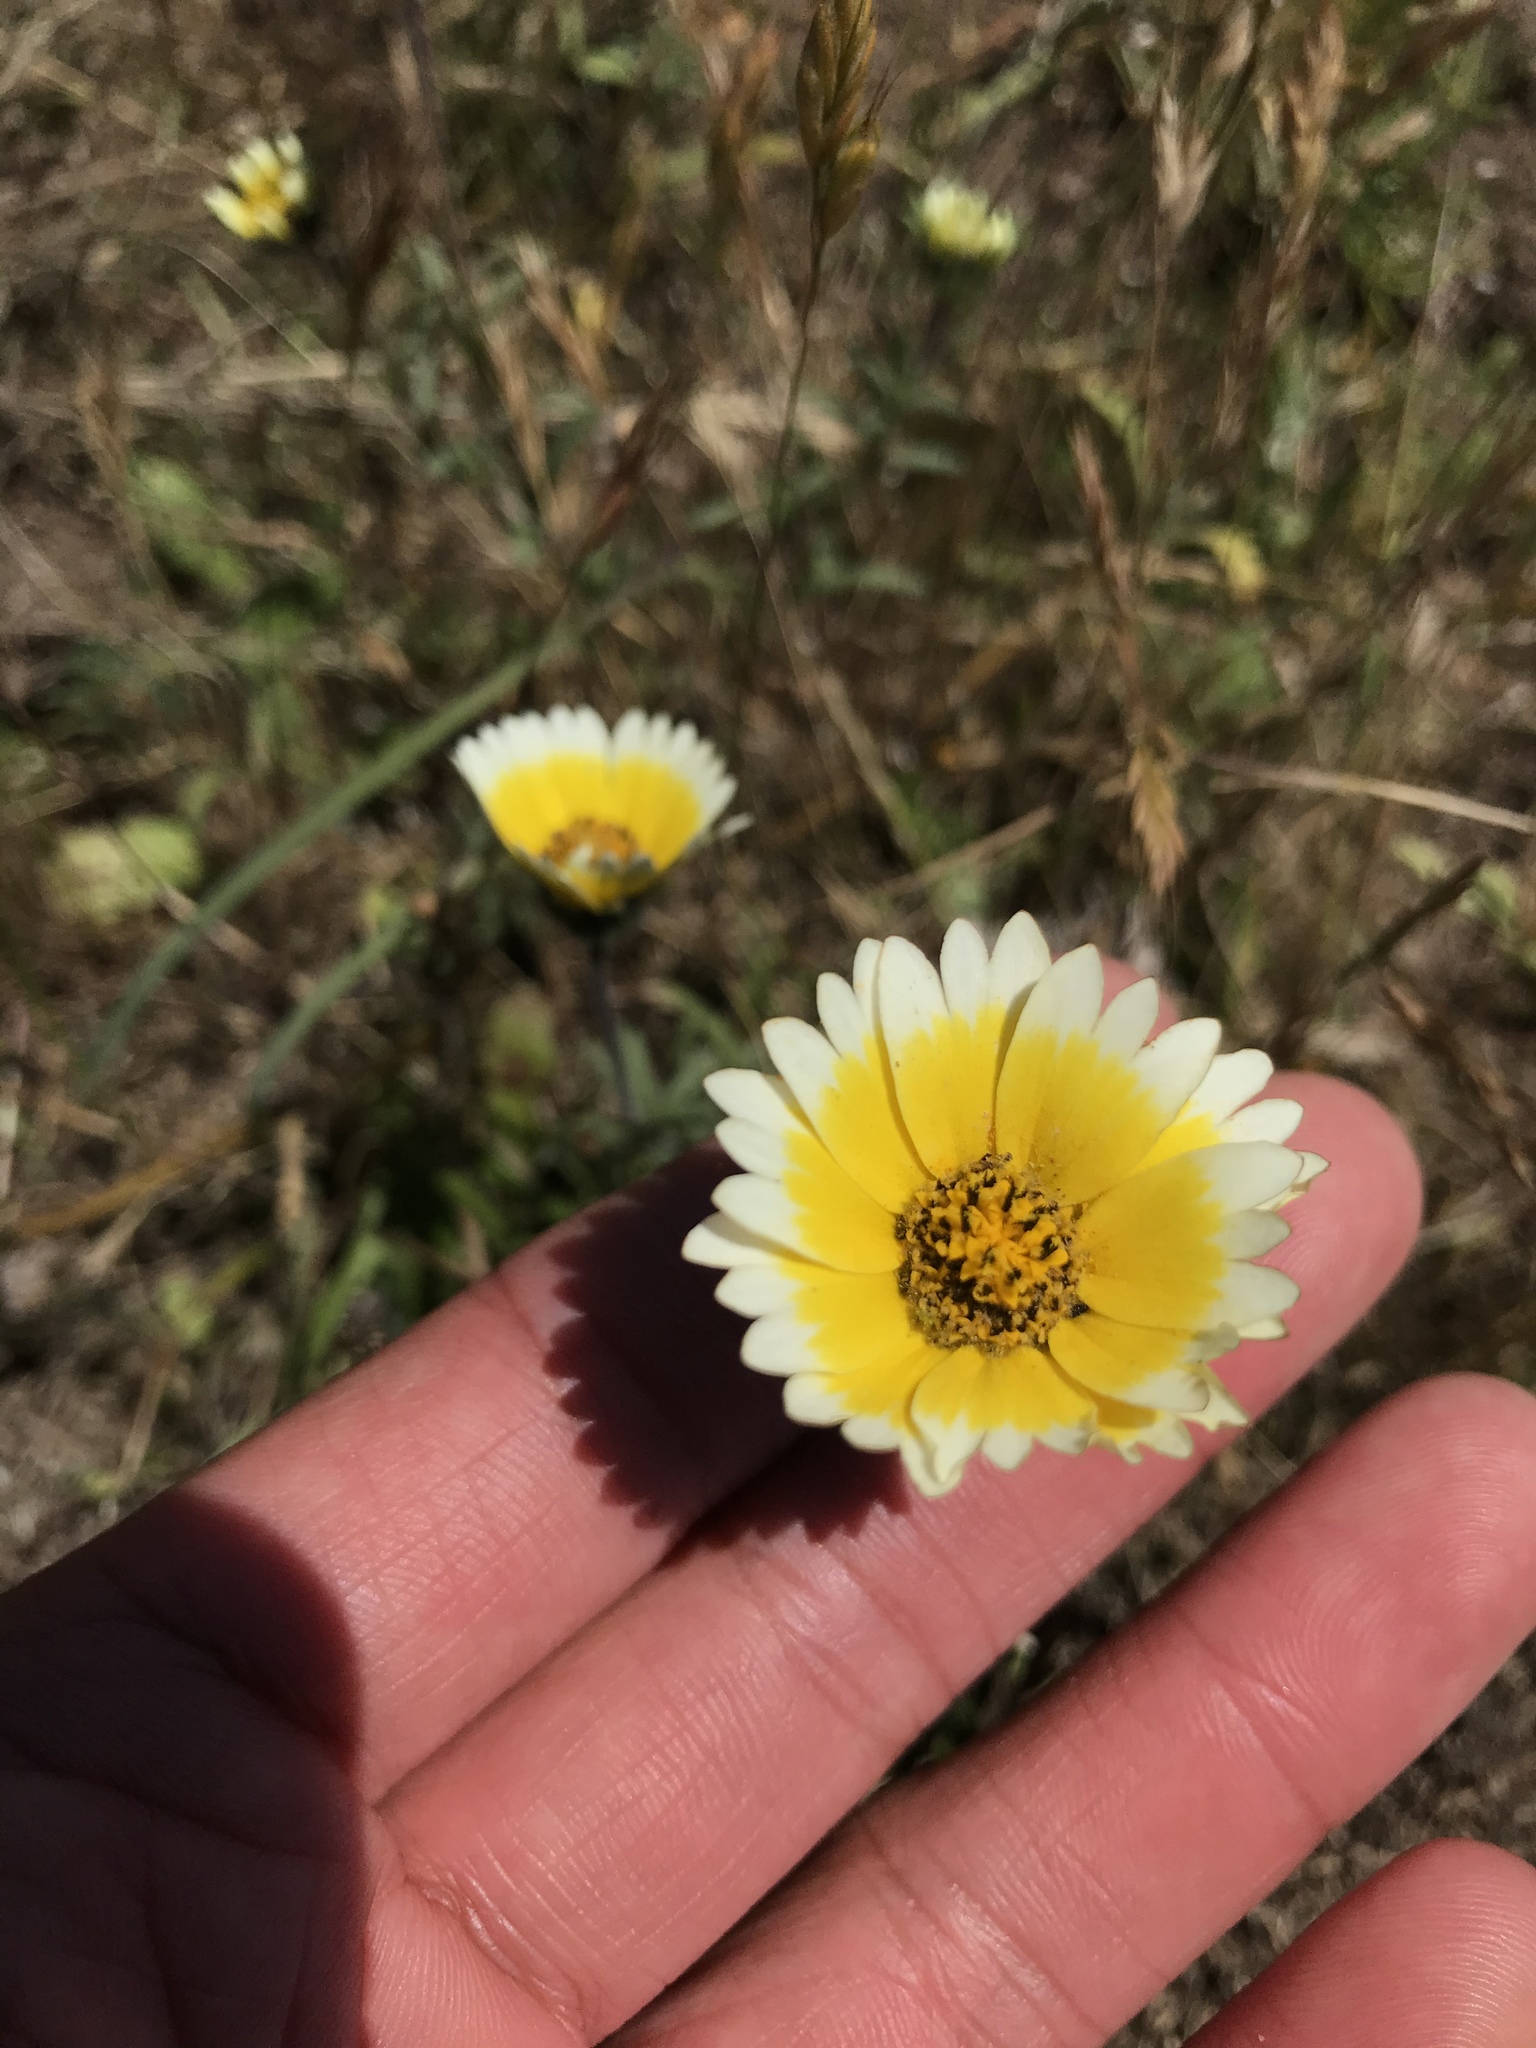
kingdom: Plantae
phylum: Tracheophyta
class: Magnoliopsida
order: Asterales
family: Asteraceae
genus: Layia
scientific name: Layia platyglossa
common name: Tidy-tips
